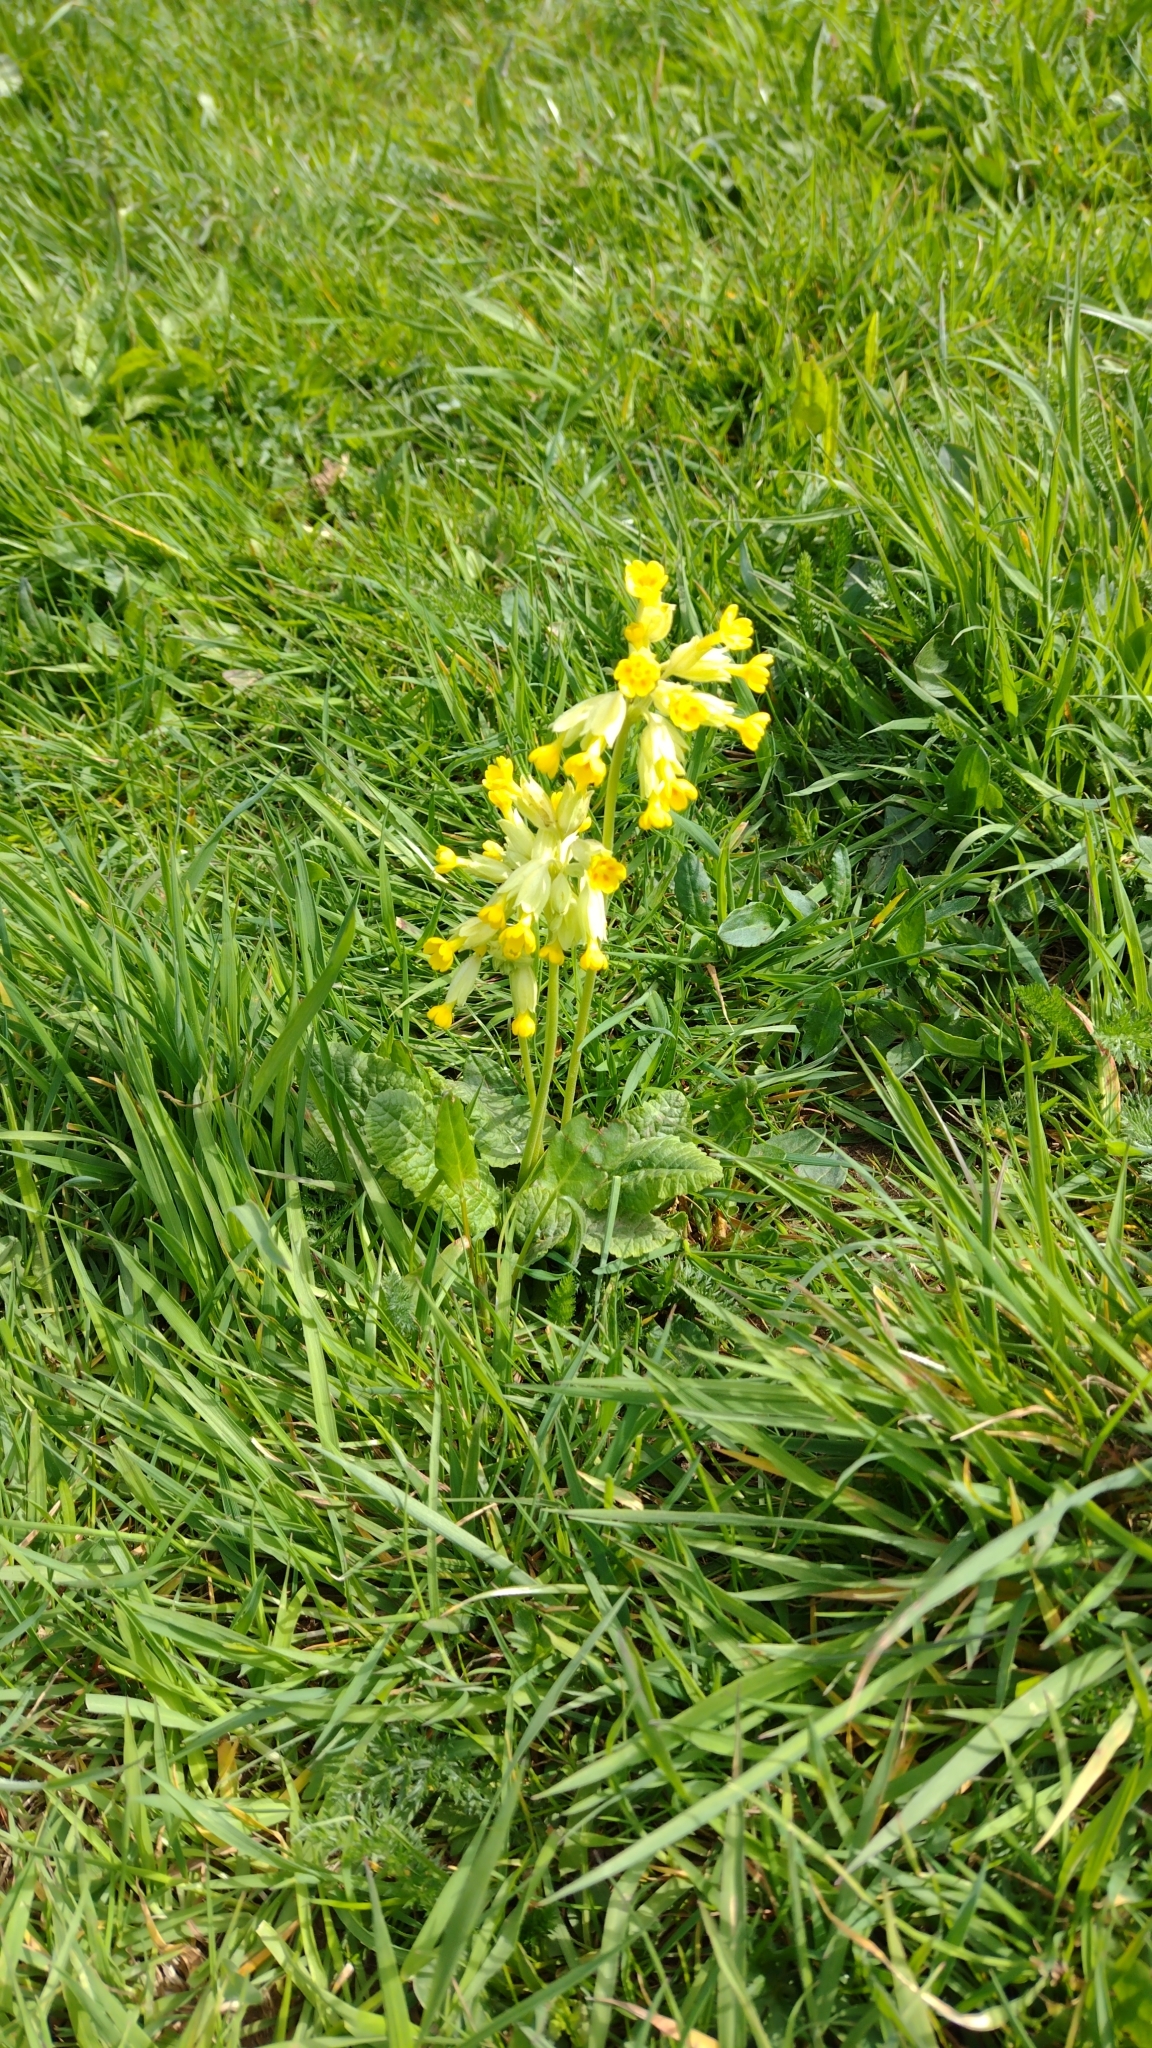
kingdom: Plantae
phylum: Tracheophyta
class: Magnoliopsida
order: Ericales
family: Primulaceae
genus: Primula
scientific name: Primula veris
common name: Cowslip
